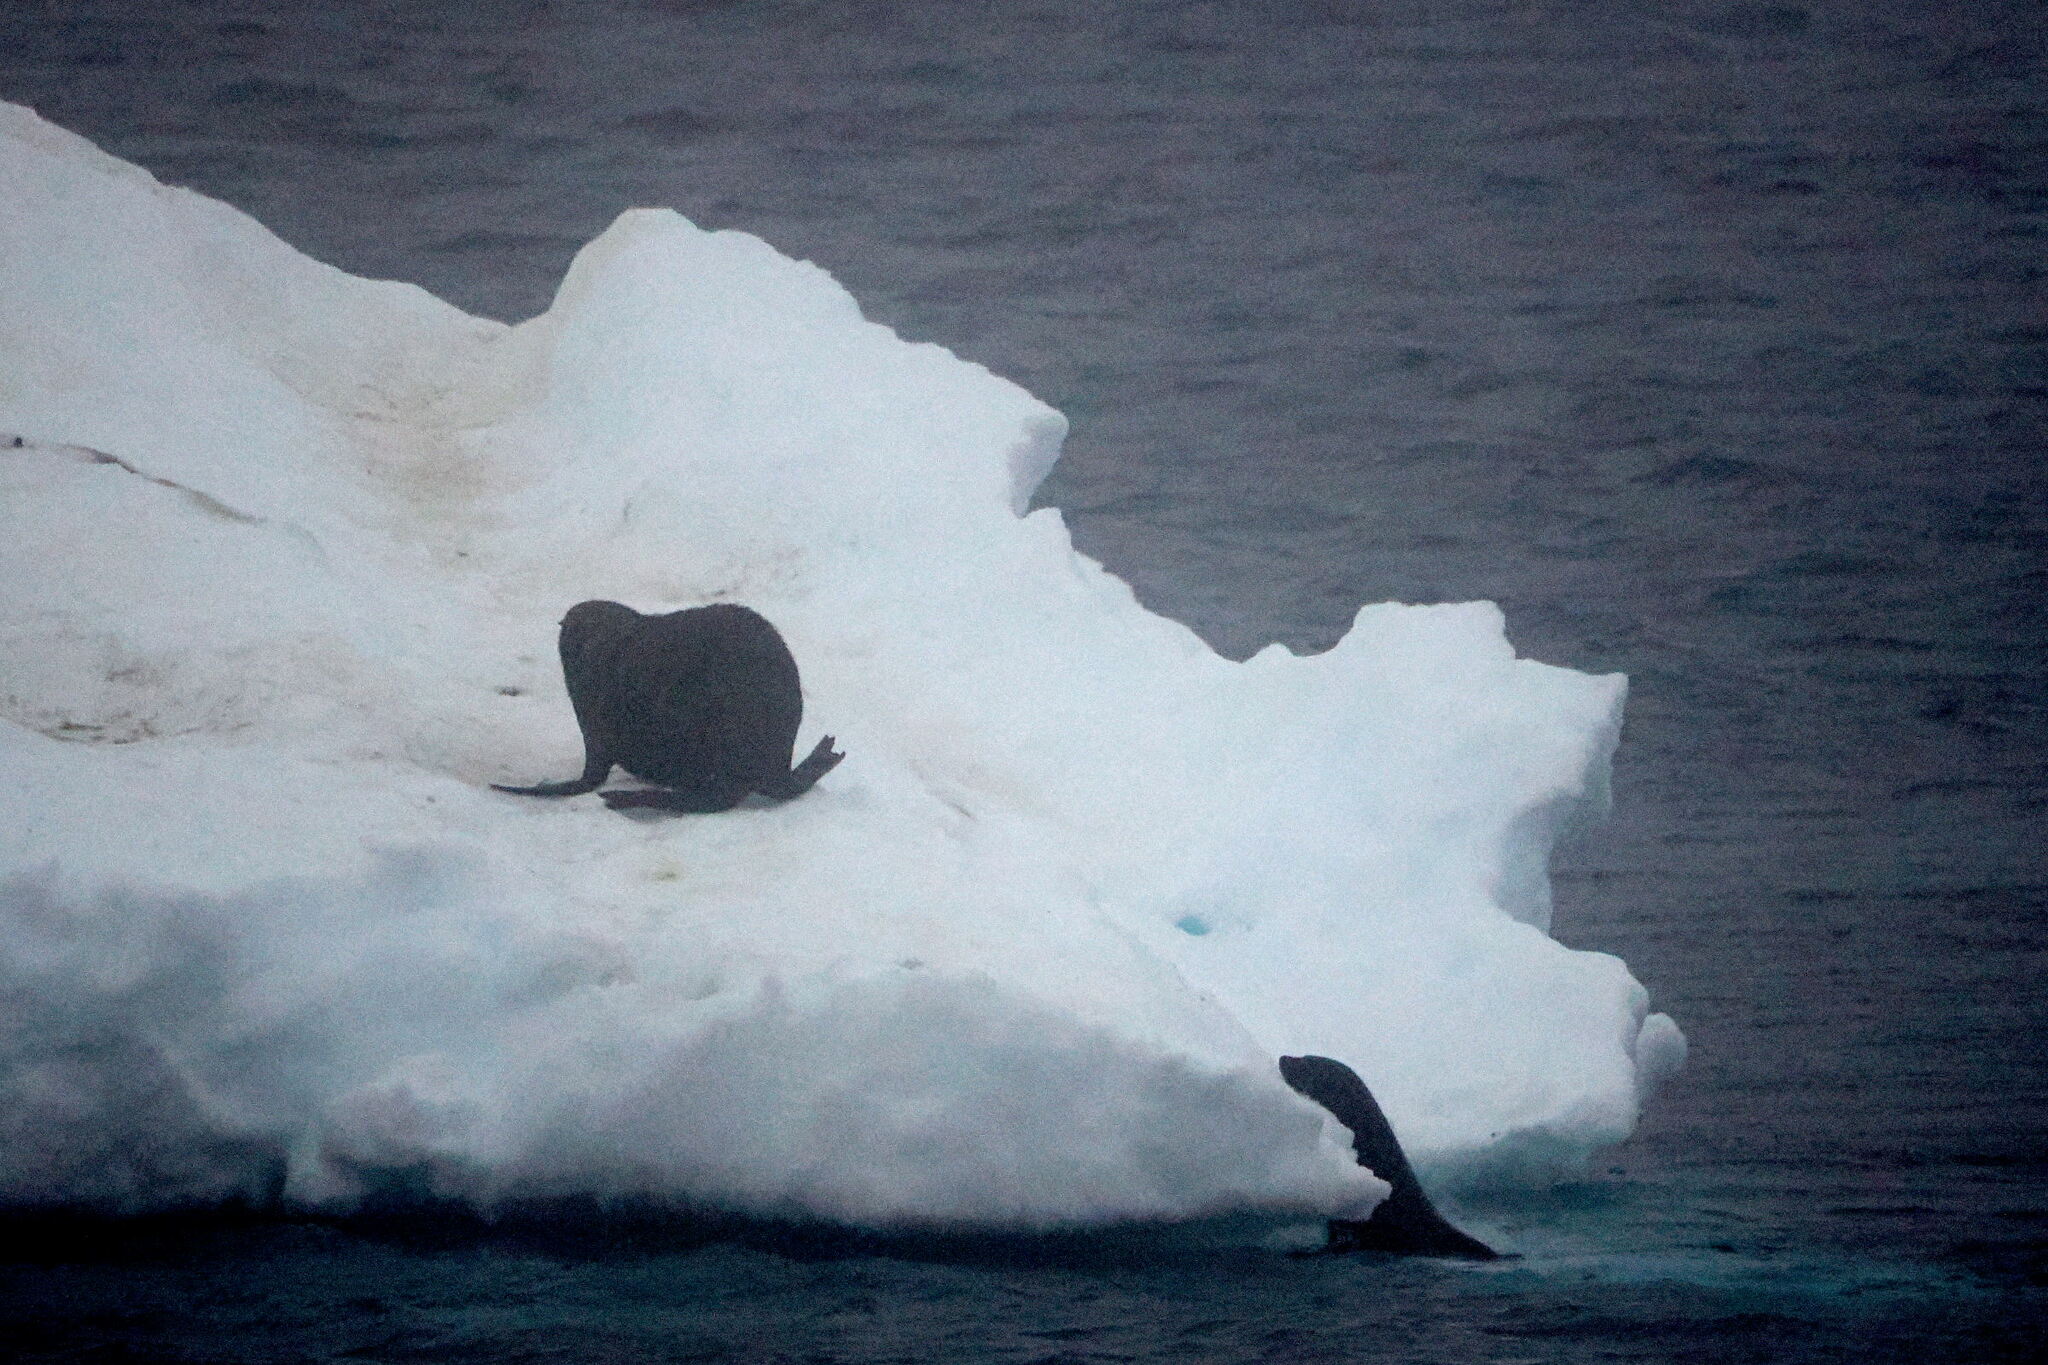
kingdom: Animalia
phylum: Chordata
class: Mammalia
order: Carnivora
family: Otariidae
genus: Arctocephalus
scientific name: Arctocephalus gazella
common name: Antarctic fur seal
